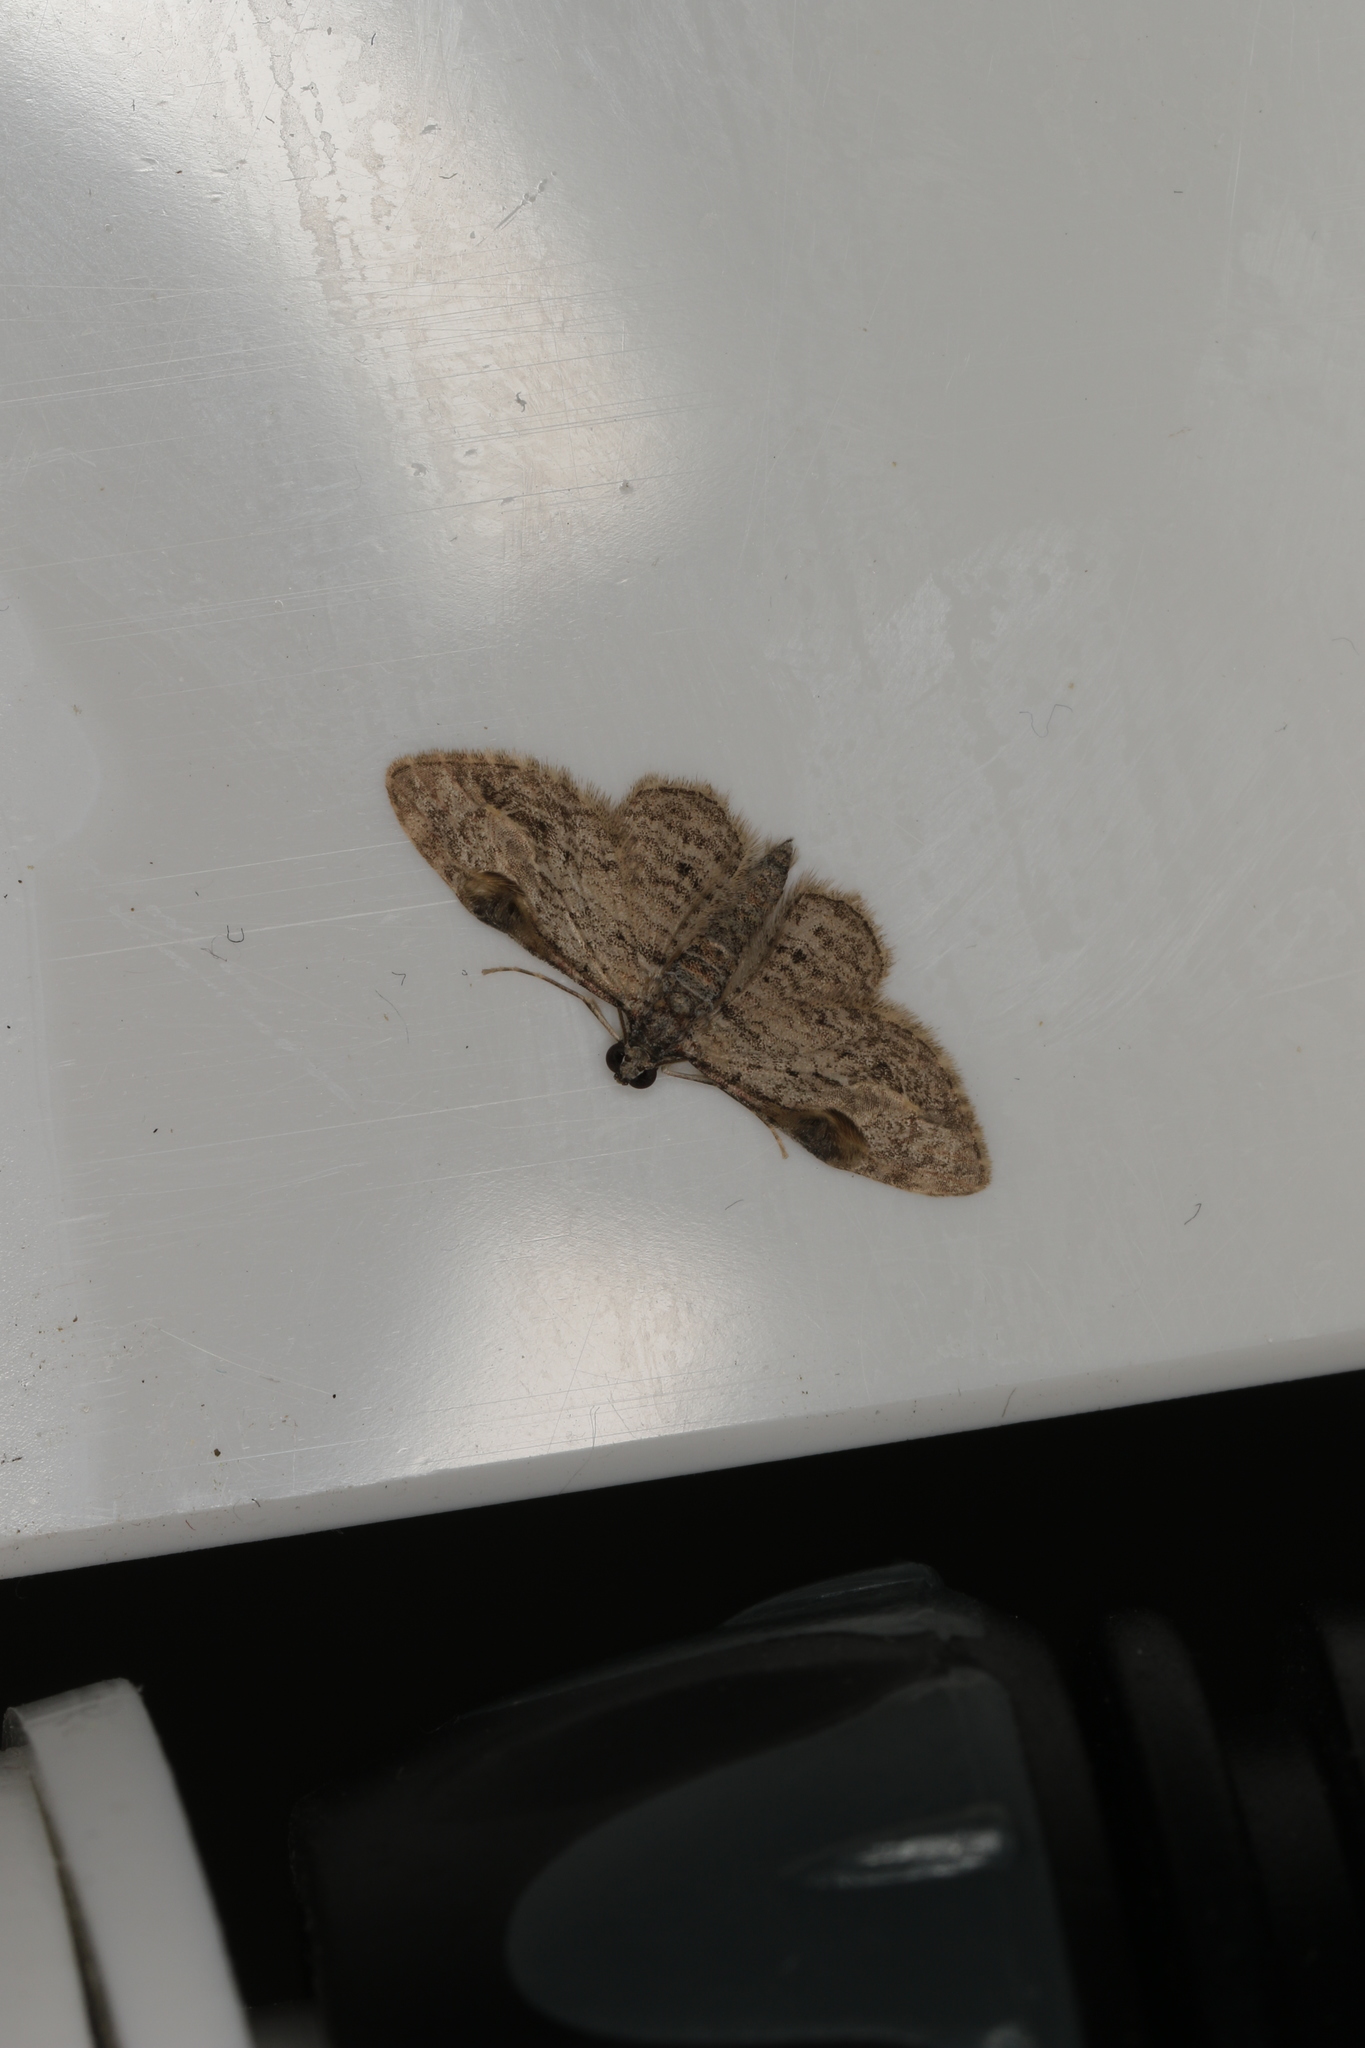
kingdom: Animalia
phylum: Arthropoda
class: Insecta
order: Lepidoptera
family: Geometridae
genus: Chloroclystis
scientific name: Chloroclystis insigillata
